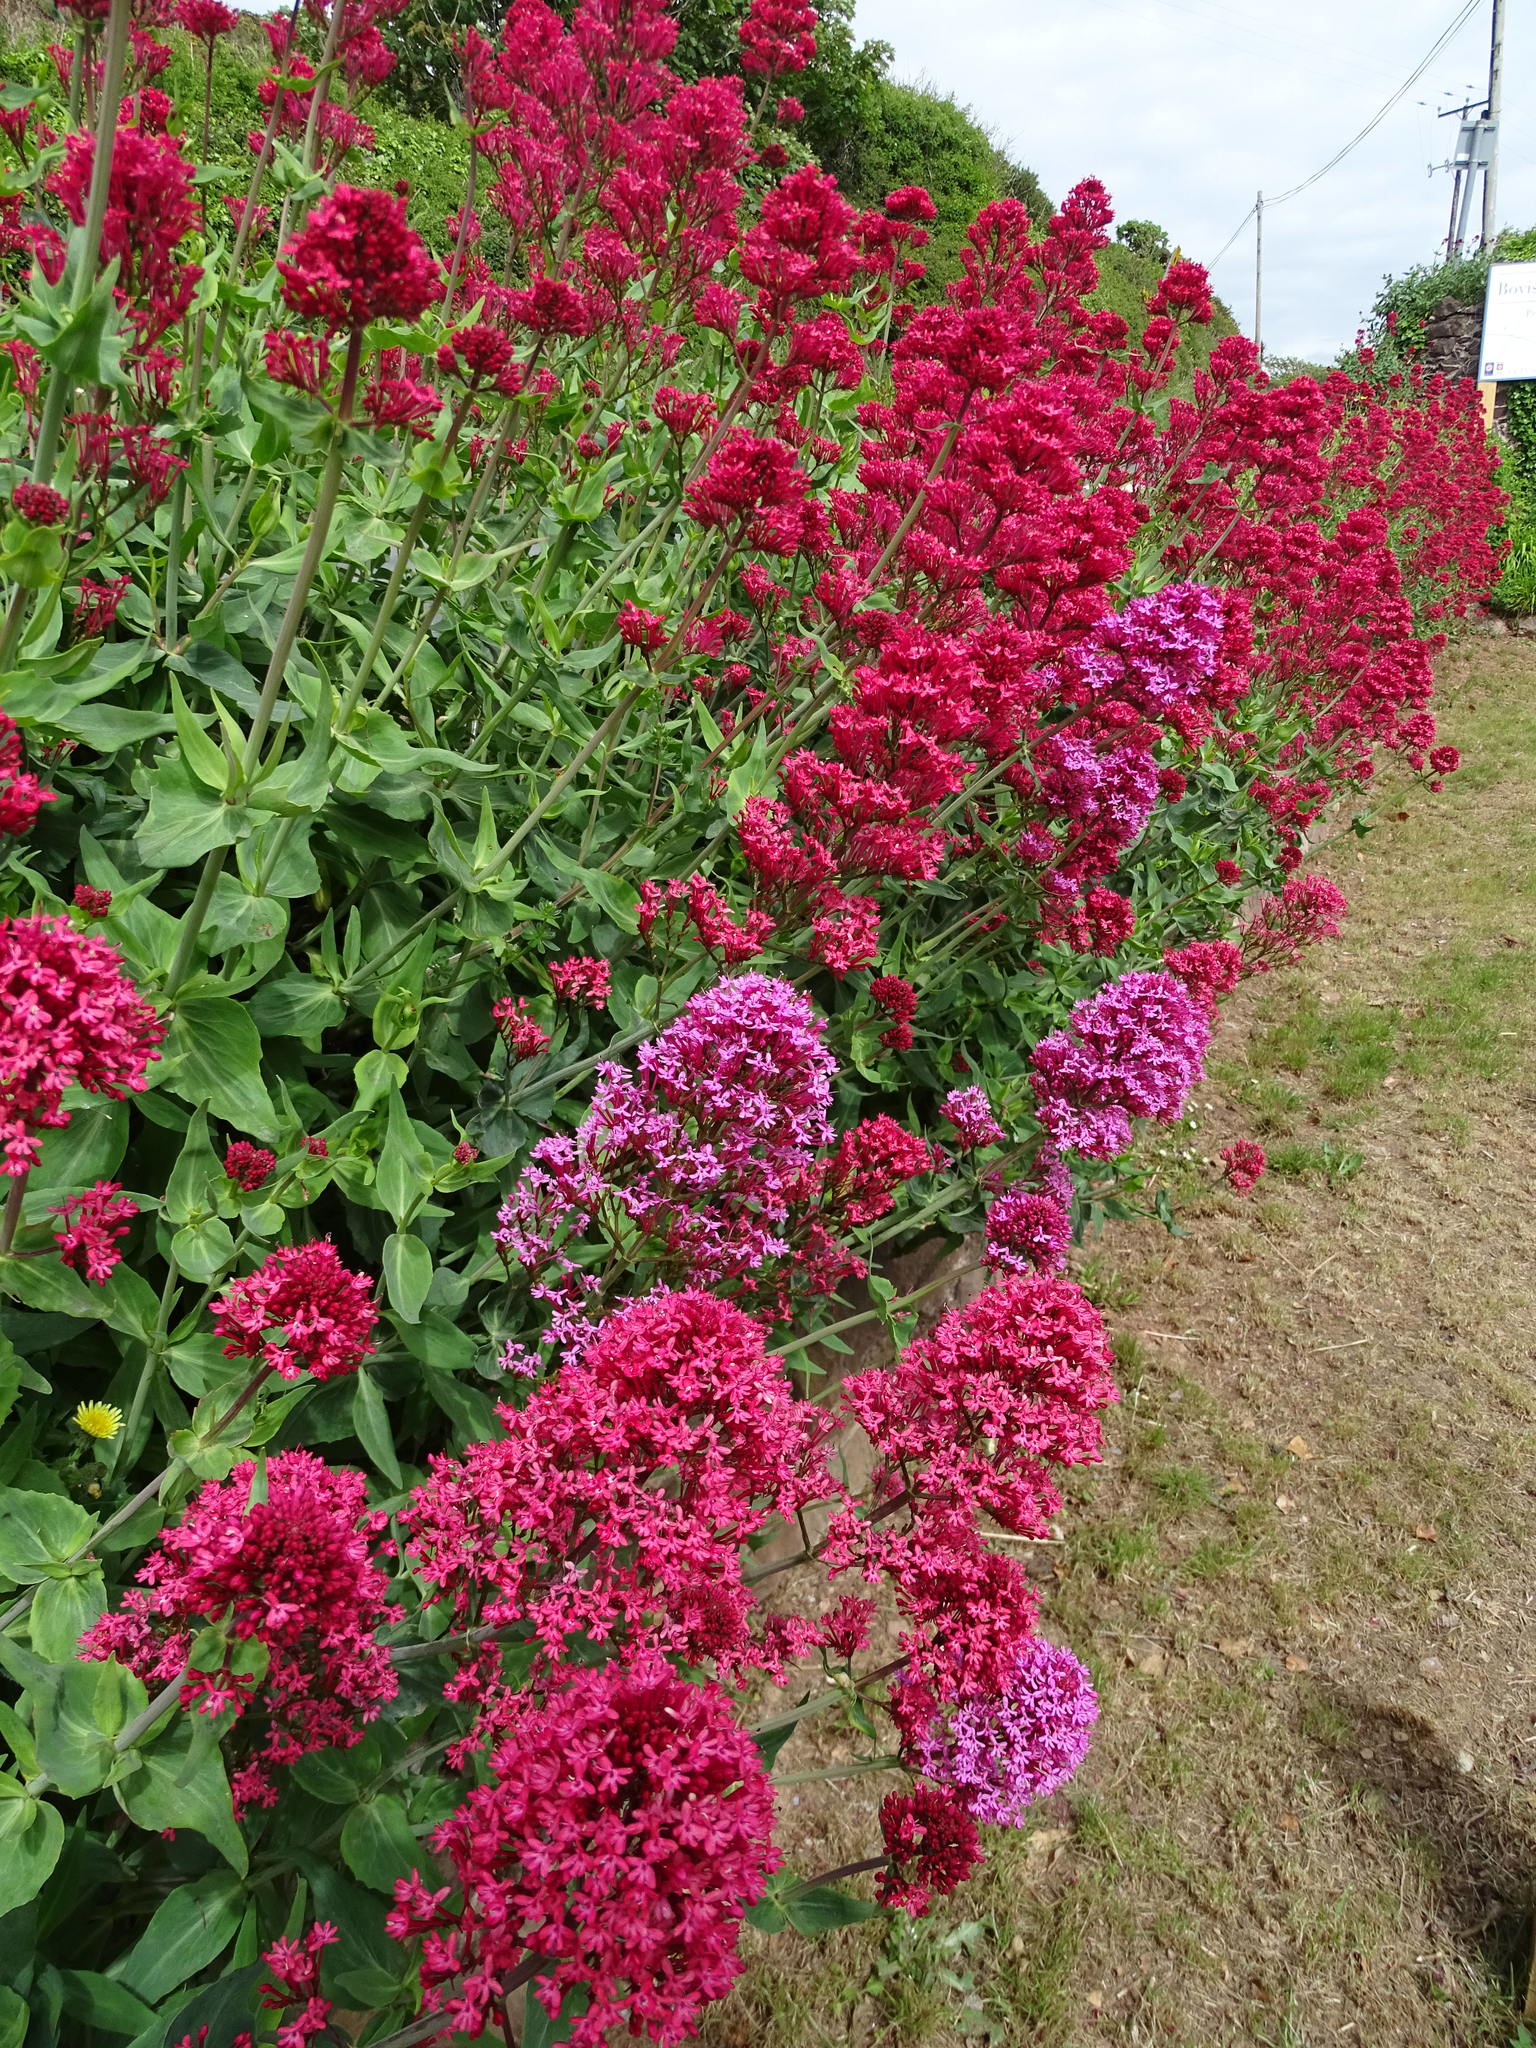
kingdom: Plantae
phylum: Tracheophyta
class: Magnoliopsida
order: Dipsacales
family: Caprifoliaceae
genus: Centranthus
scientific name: Centranthus ruber
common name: Red valerian
